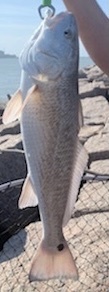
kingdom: Animalia
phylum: Chordata
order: Perciformes
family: Sciaenidae
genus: Sciaenops
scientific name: Sciaenops ocellatus
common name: Red drum
